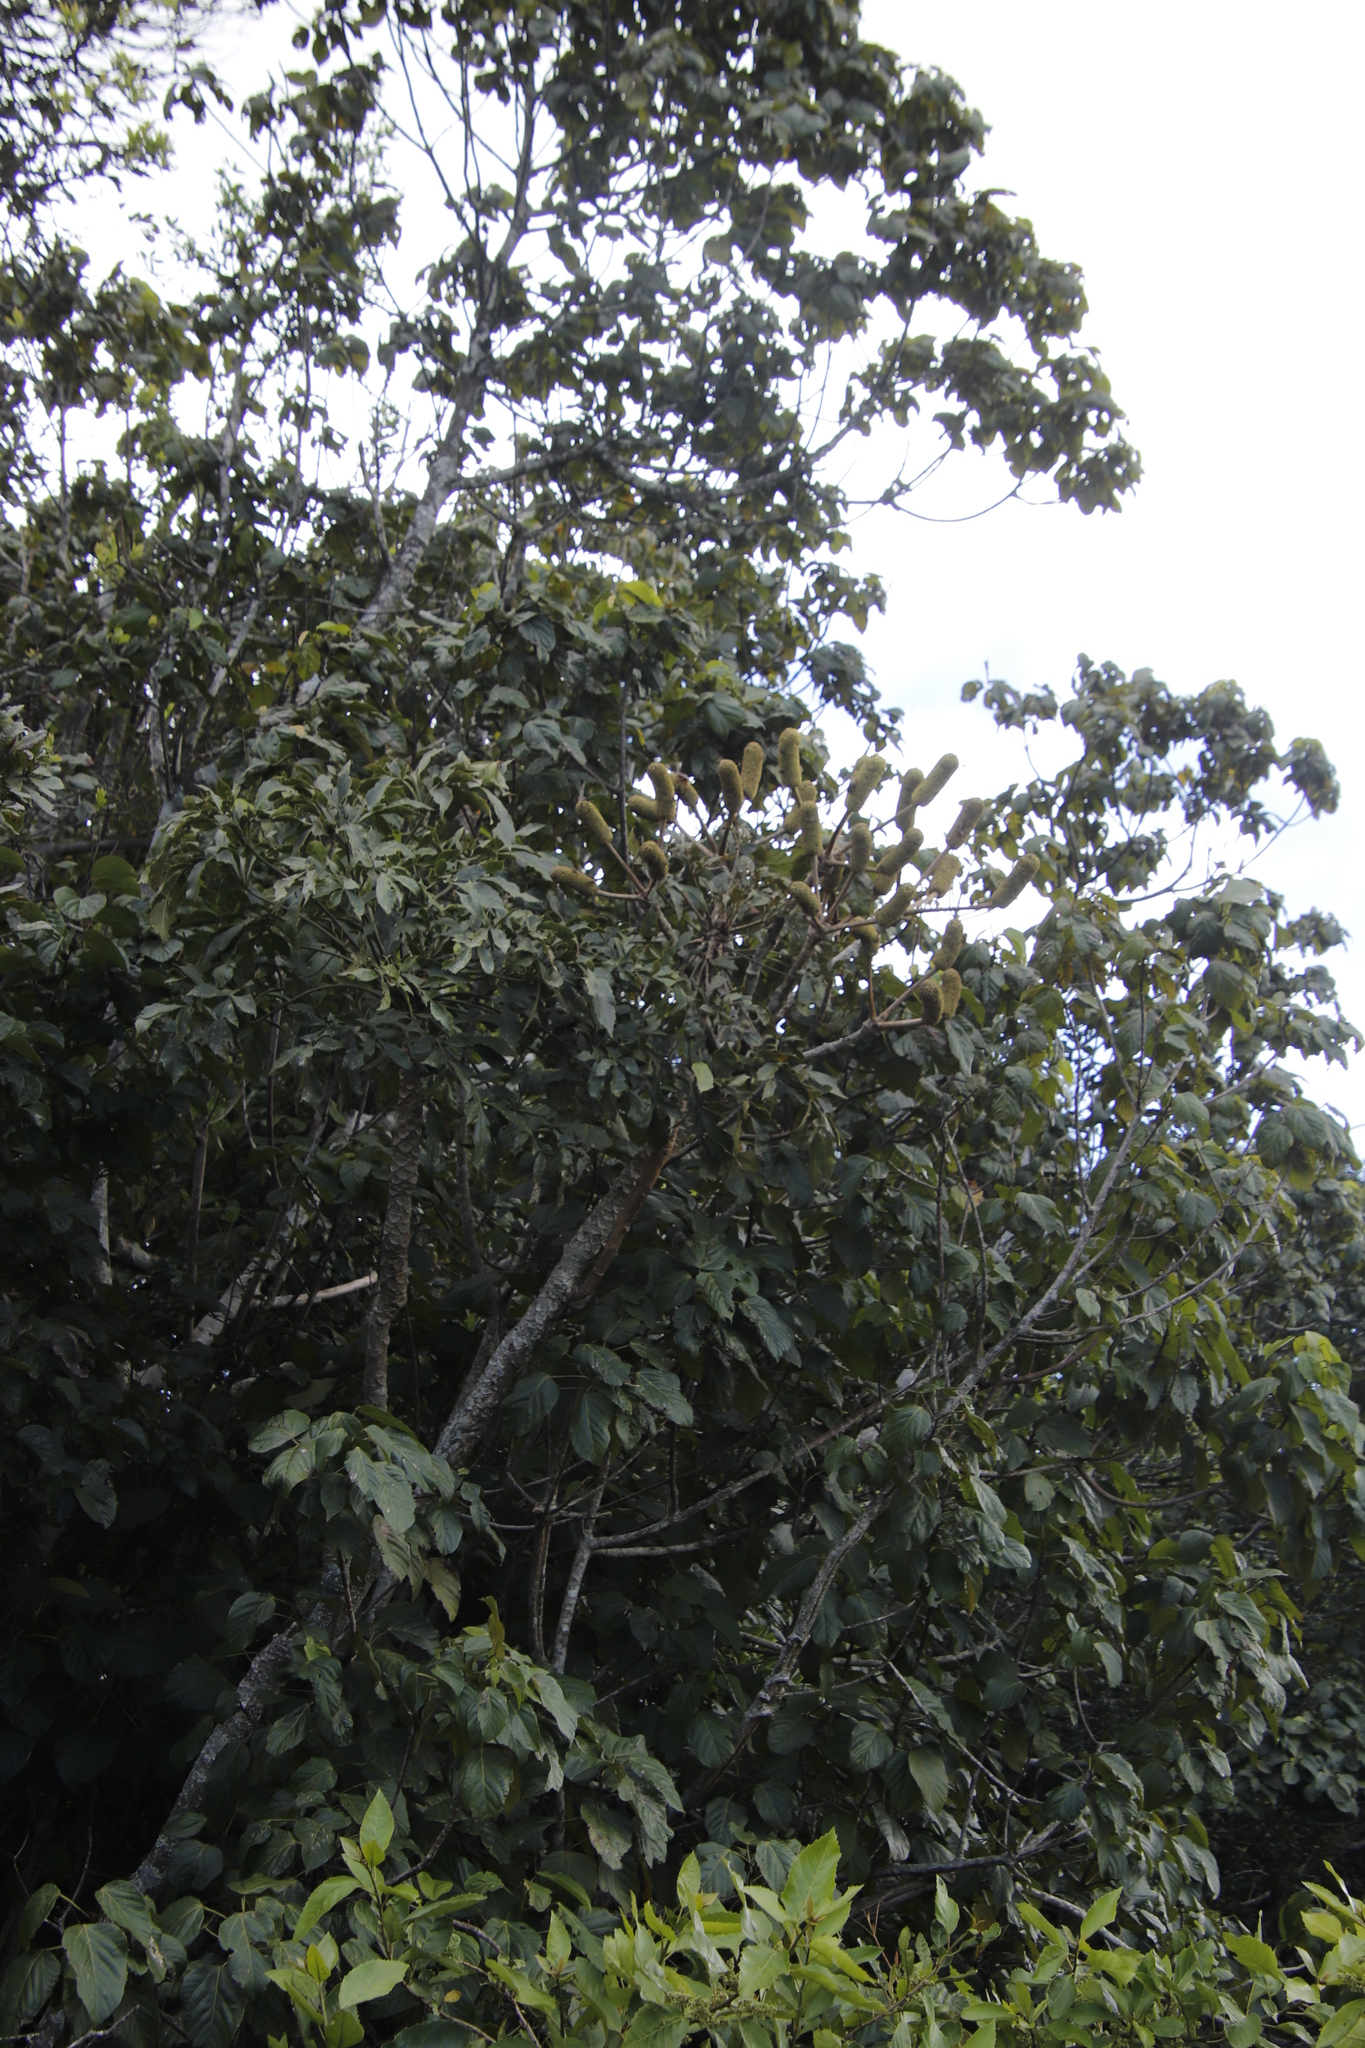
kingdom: Plantae
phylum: Tracheophyta
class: Magnoliopsida
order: Apiales
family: Araliaceae
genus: Cussonia
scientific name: Cussonia spicata
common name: Common cabbagetree
